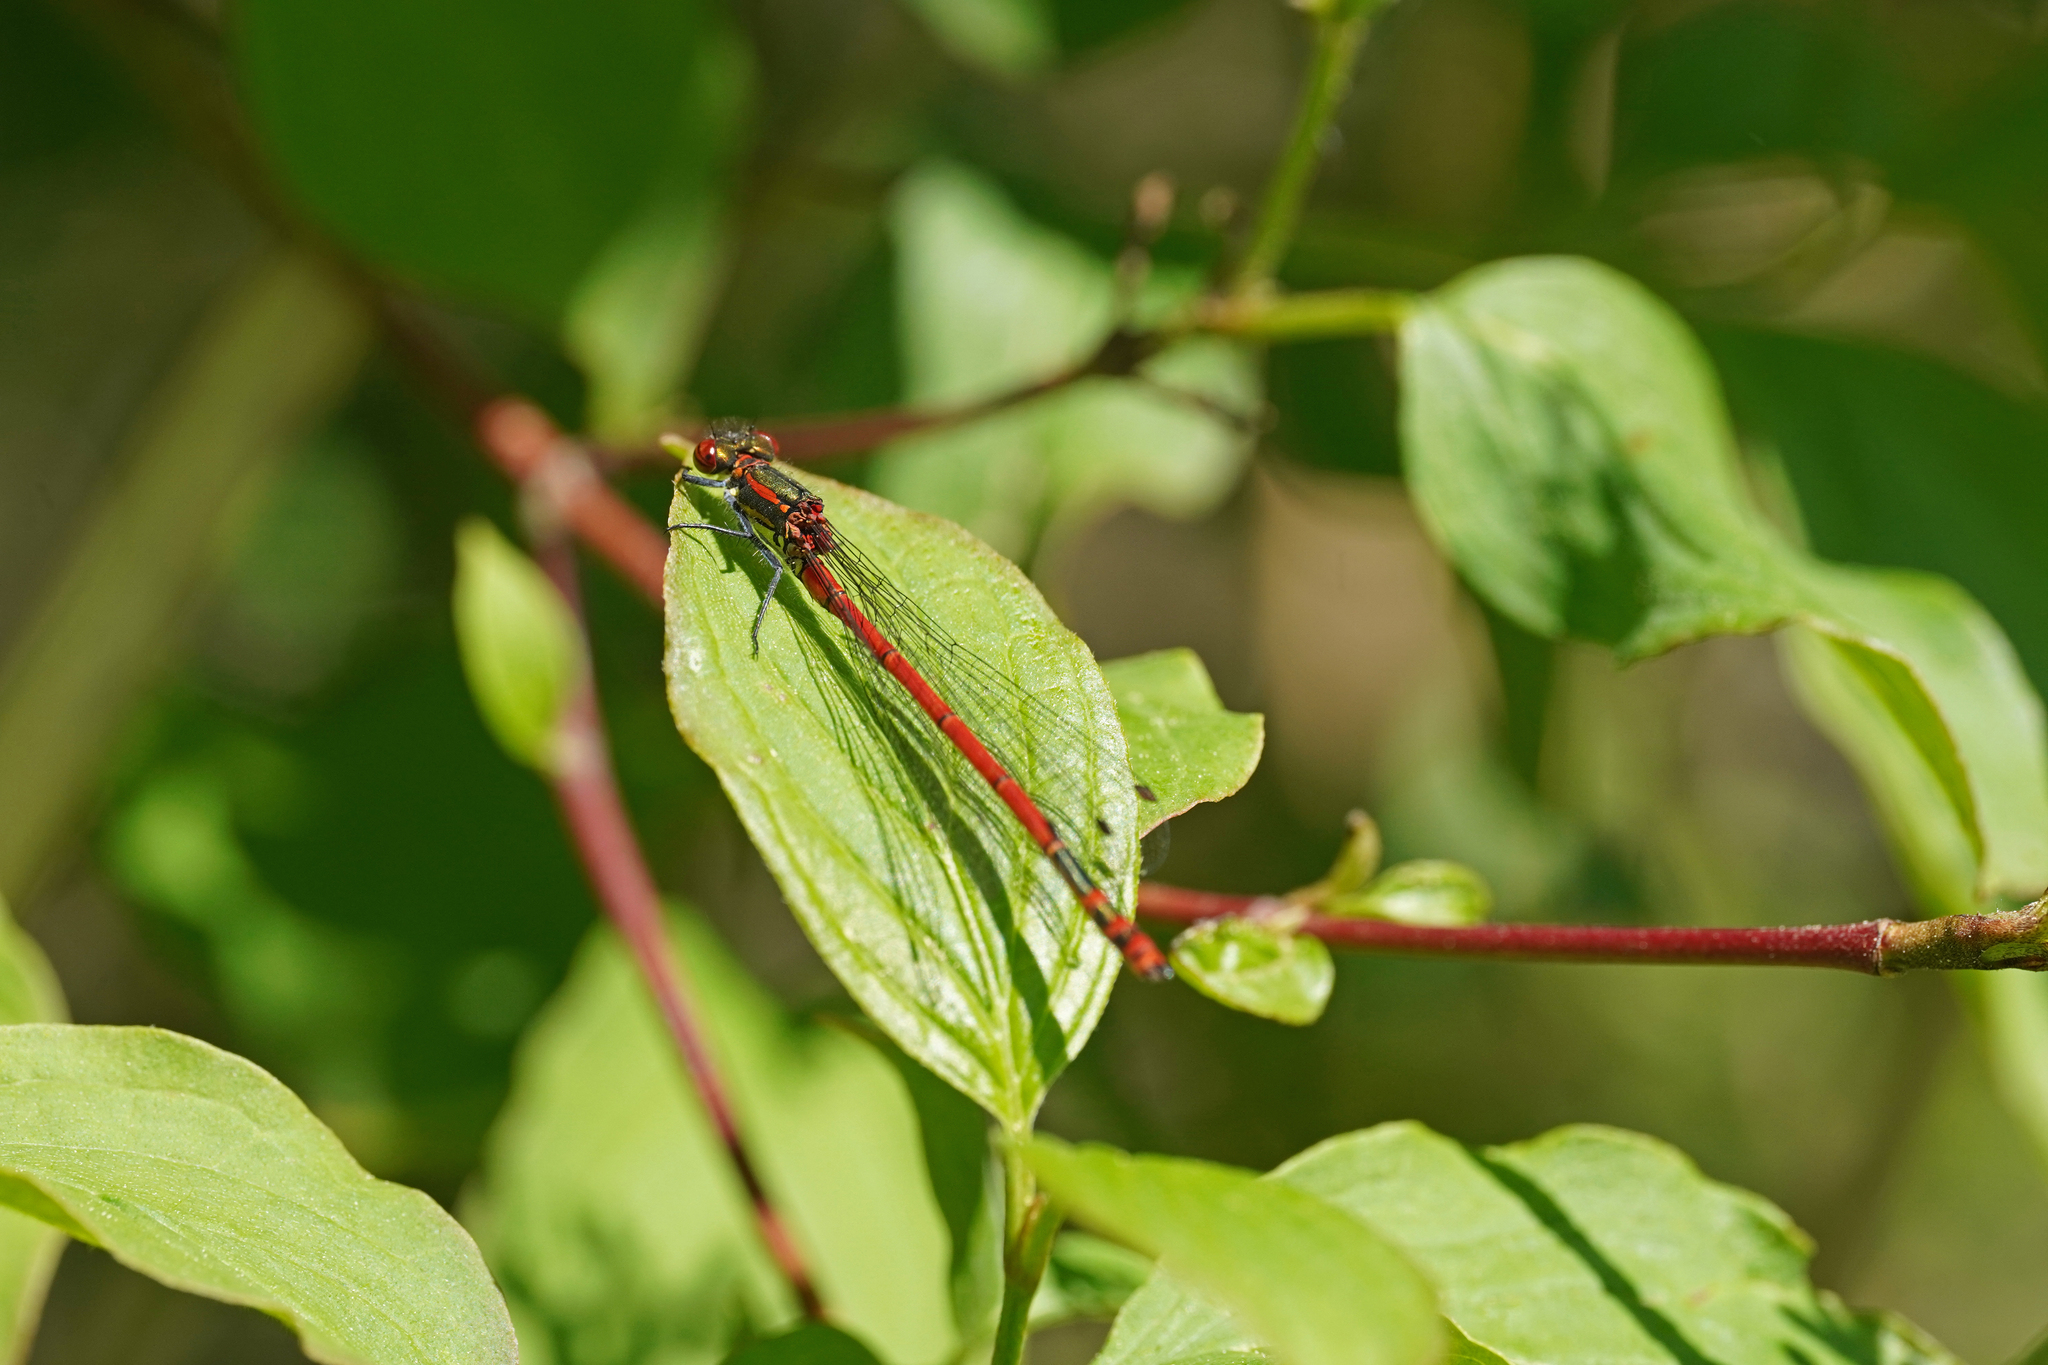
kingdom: Animalia
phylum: Arthropoda
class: Insecta
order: Odonata
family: Coenagrionidae
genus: Pyrrhosoma
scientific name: Pyrrhosoma nymphula
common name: Large red damsel
